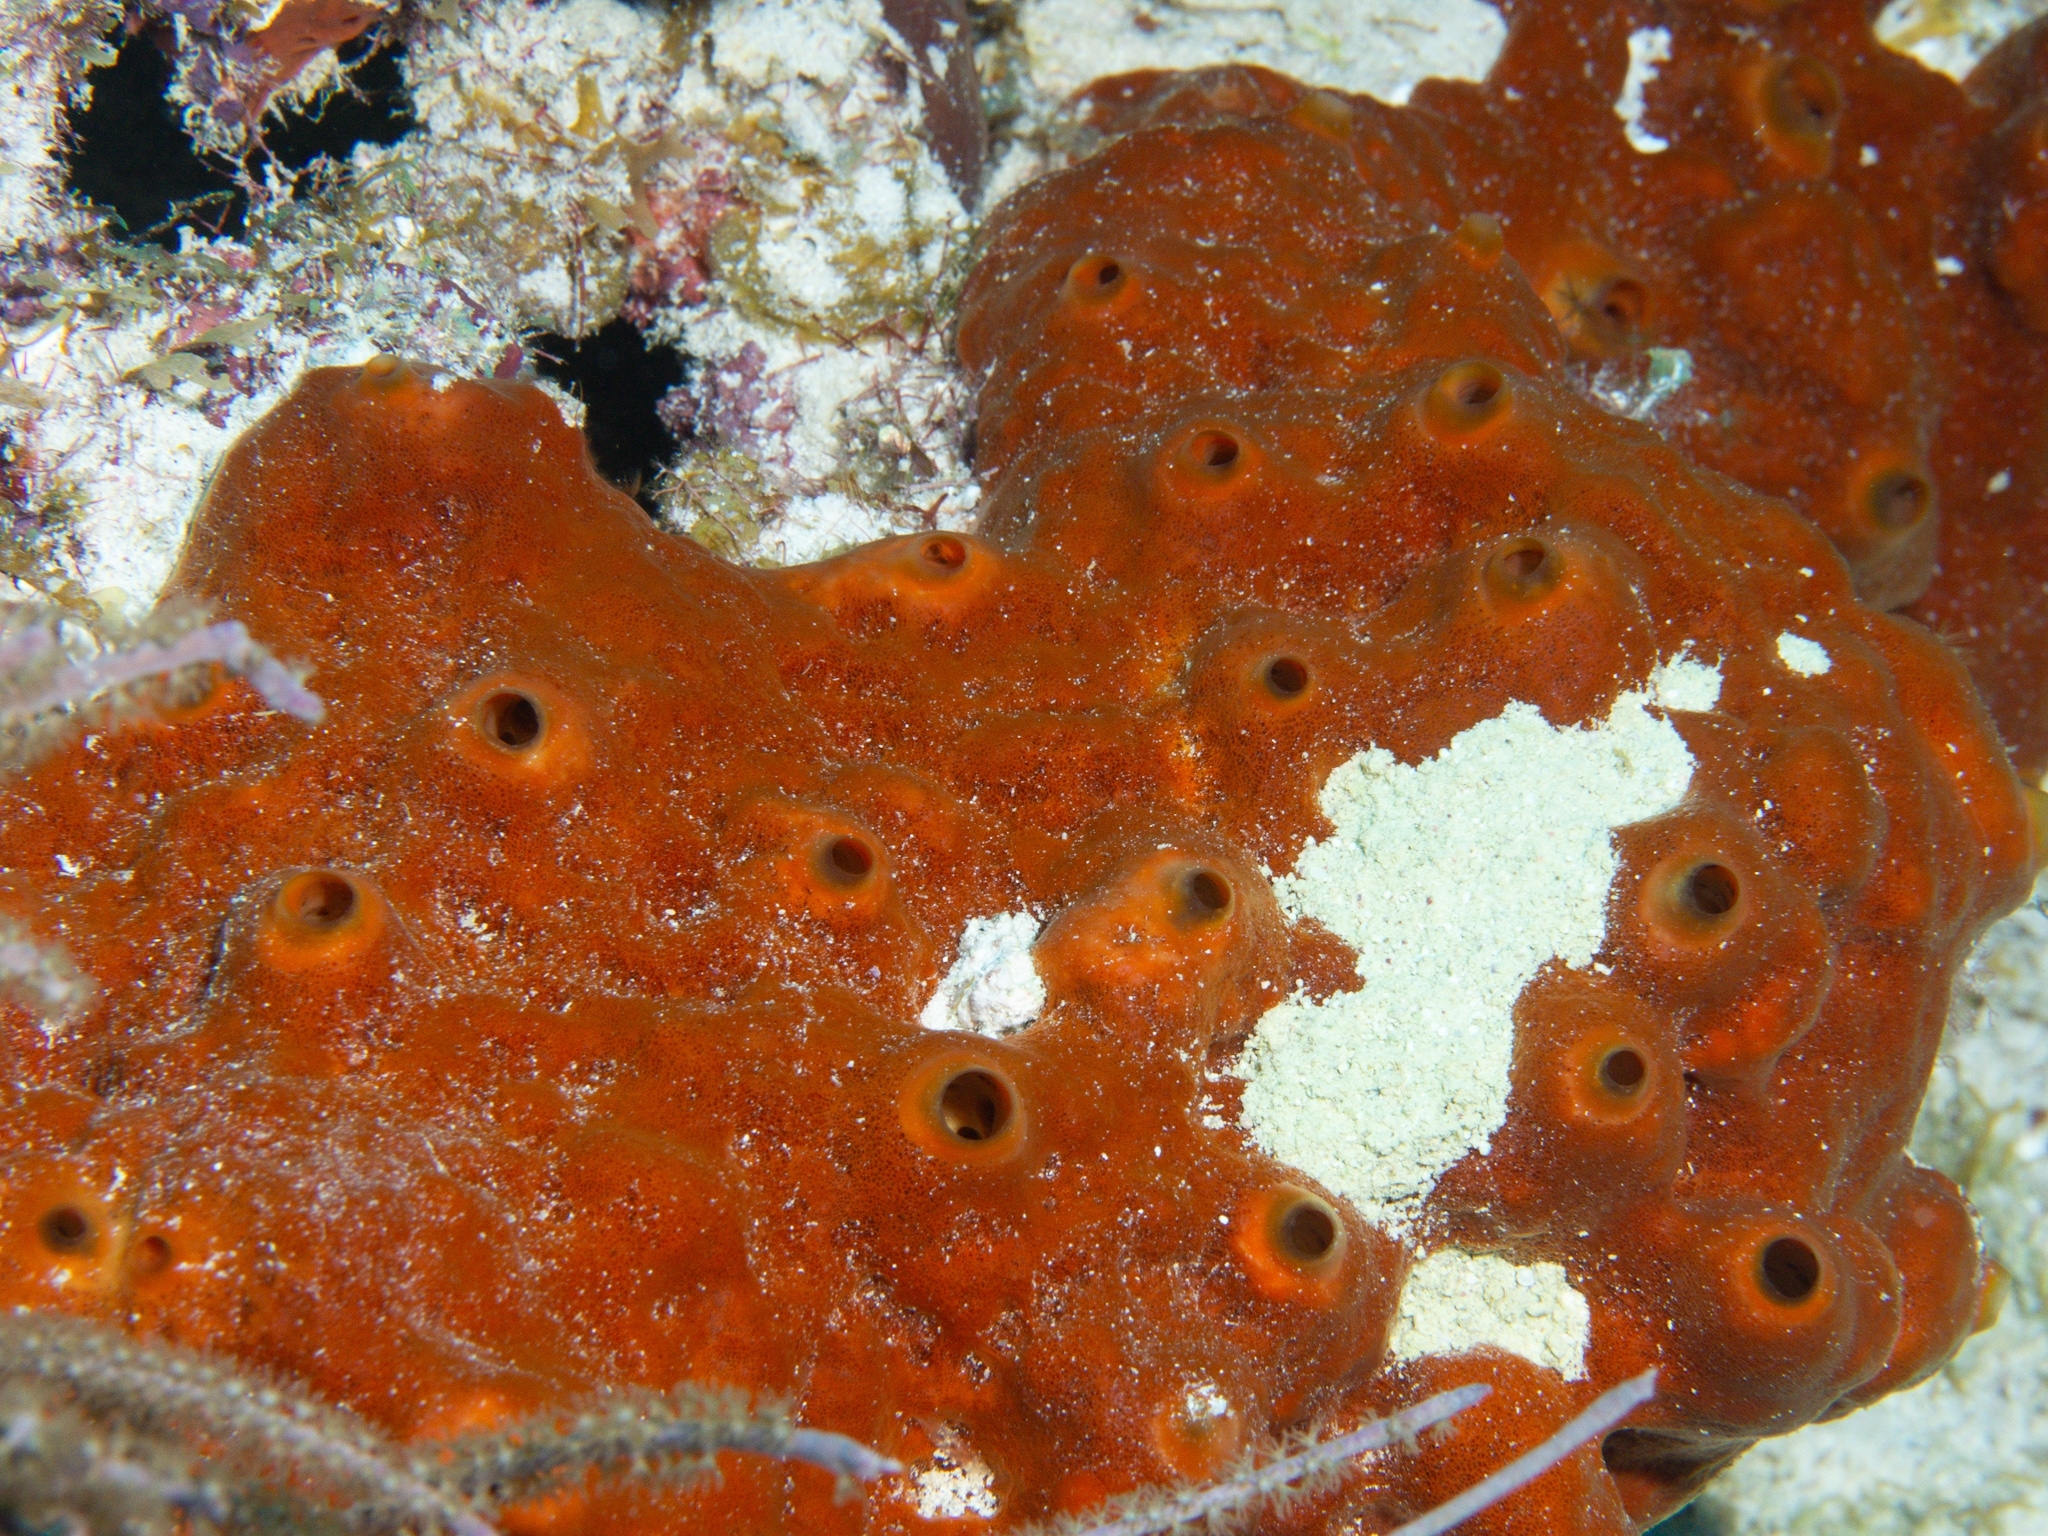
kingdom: Animalia
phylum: Porifera
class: Demospongiae
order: Axinellida
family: Raspailiidae
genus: Ectyoplasia
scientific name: Ectyoplasia ferox
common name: Brown encrusting octopus sponge
